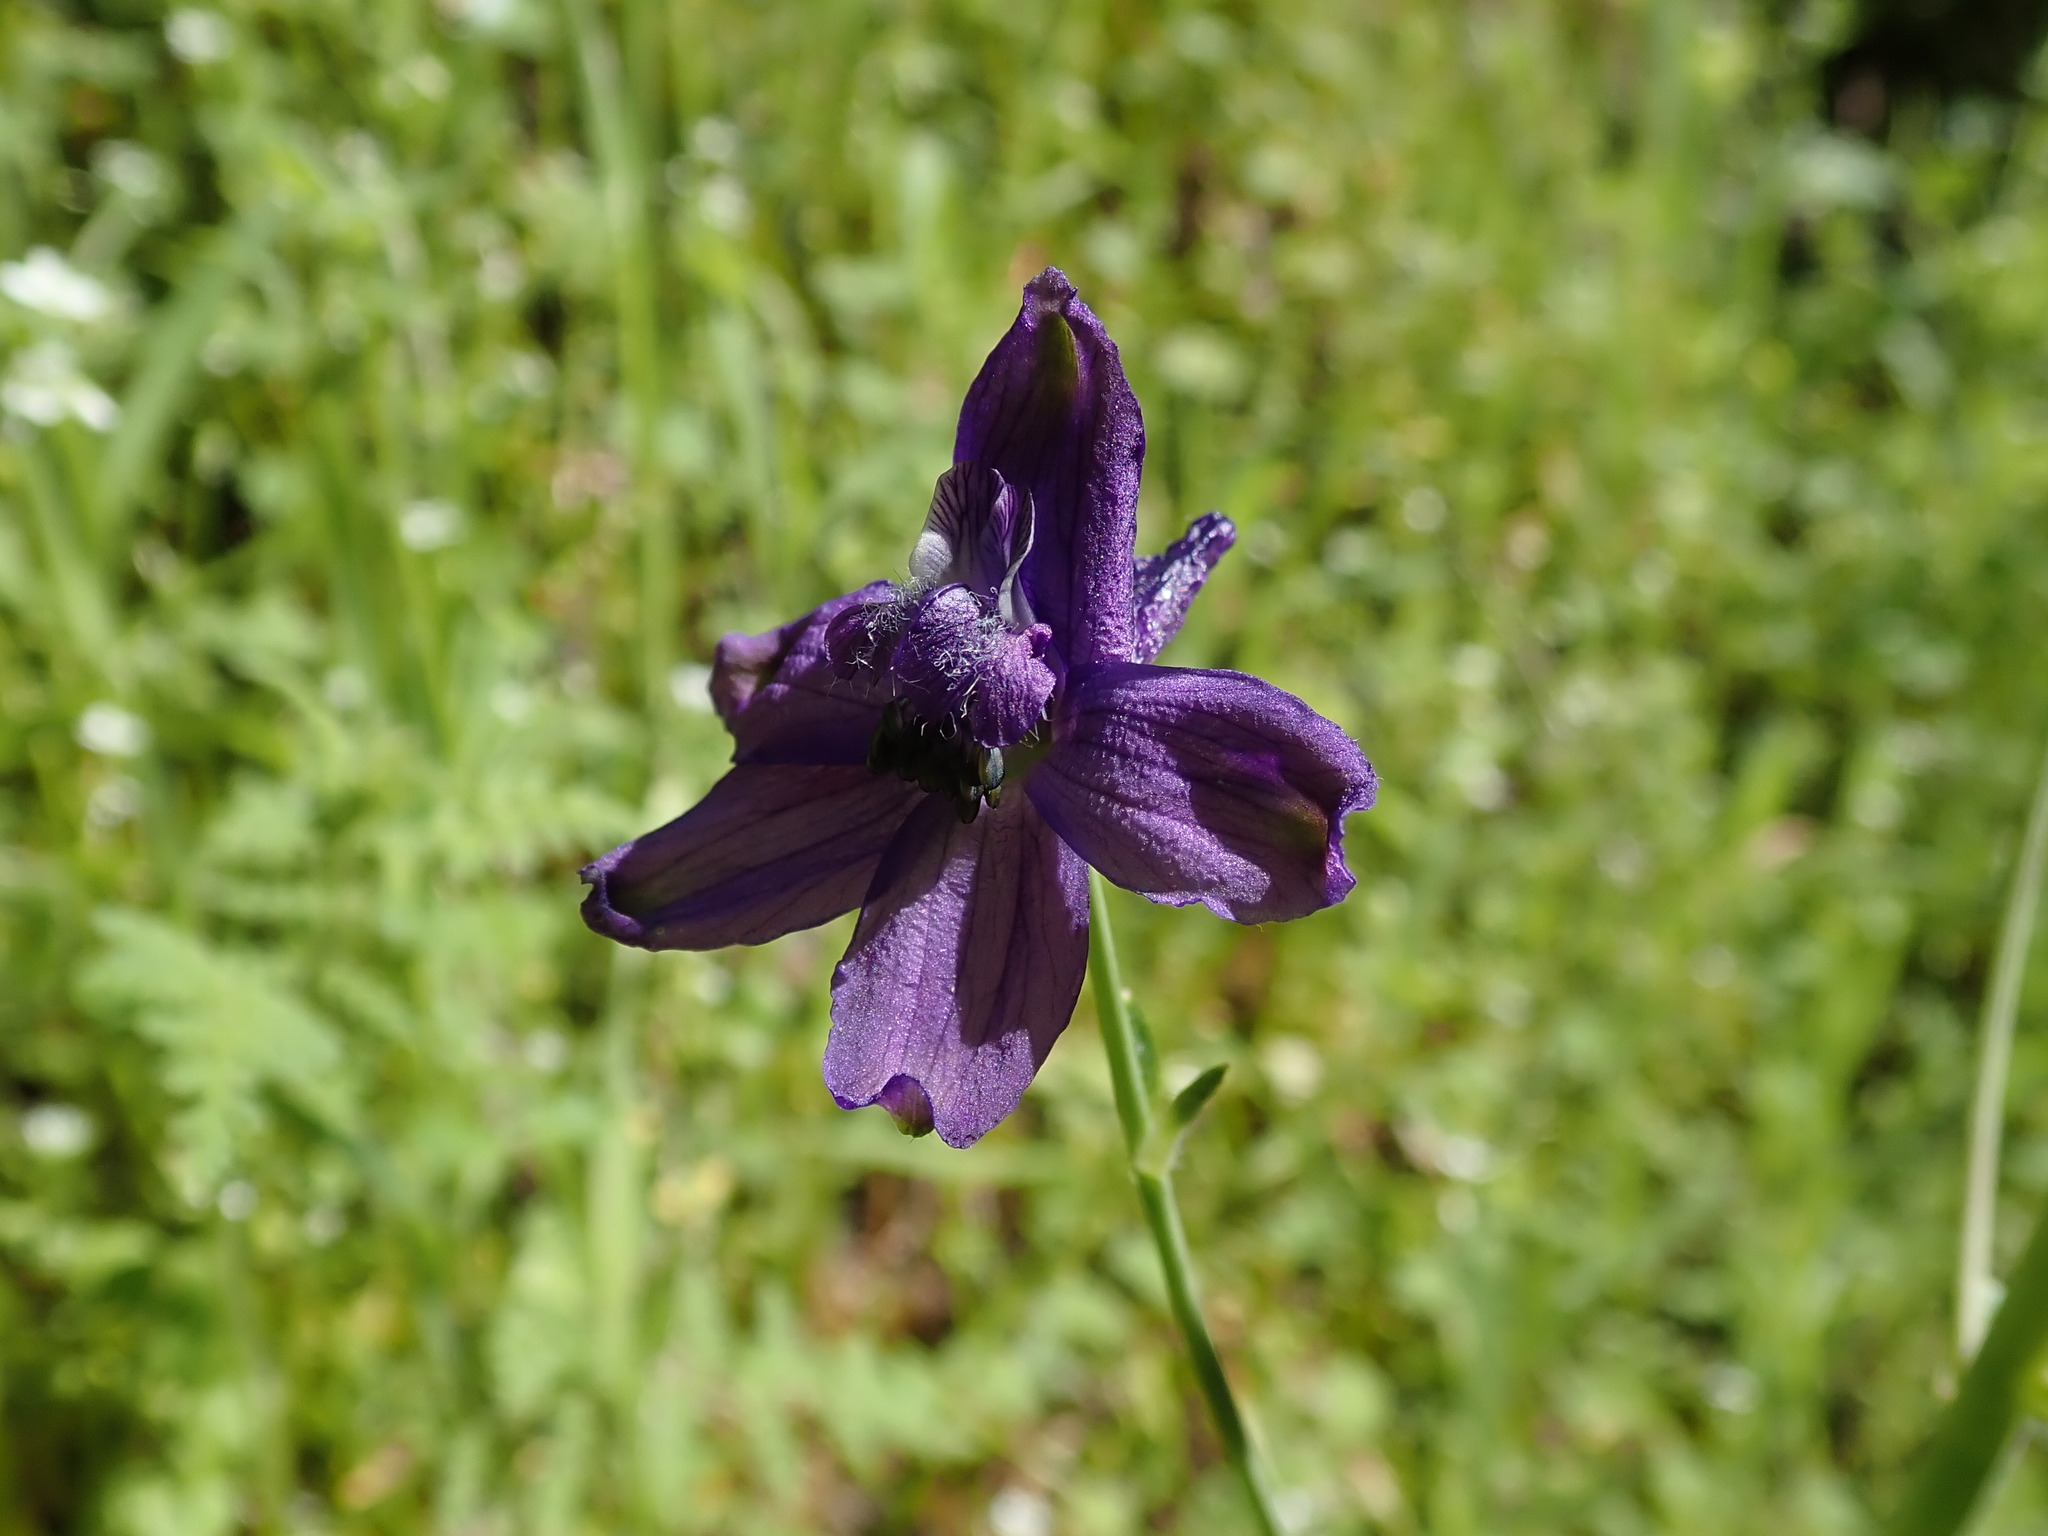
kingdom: Plantae
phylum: Tracheophyta
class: Magnoliopsida
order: Ranunculales
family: Ranunculaceae
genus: Delphinium
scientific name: Delphinium patens
